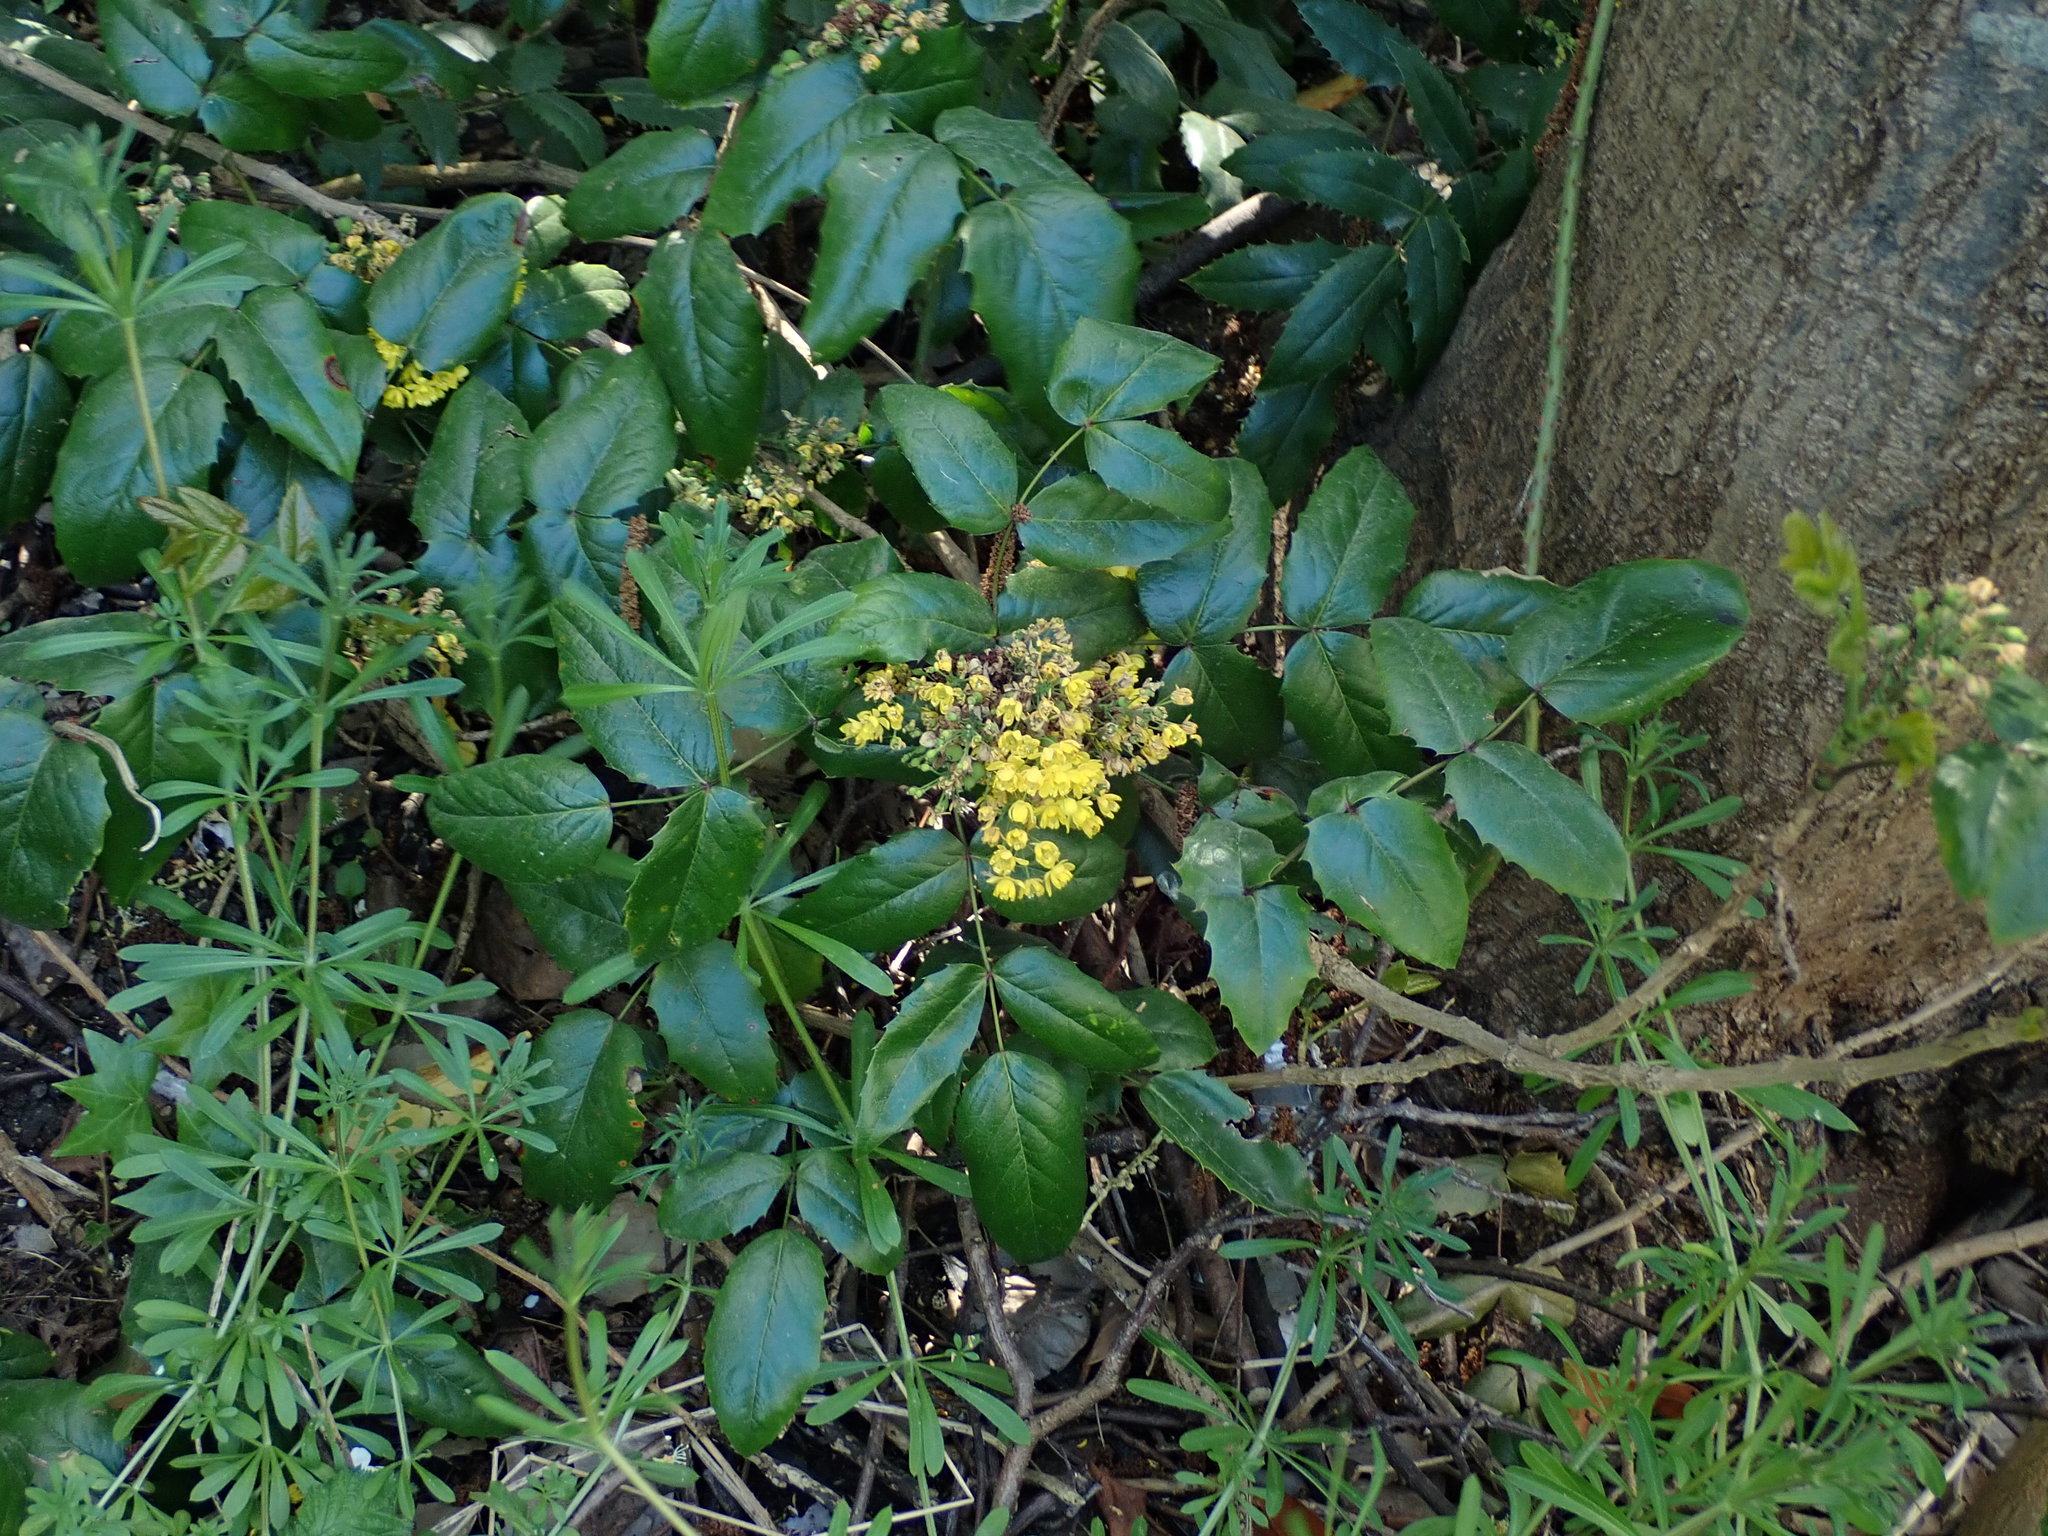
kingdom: Plantae
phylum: Tracheophyta
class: Magnoliopsida
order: Ranunculales
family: Berberidaceae
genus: Mahonia
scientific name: Mahonia aquifolium
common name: Oregon-grape
